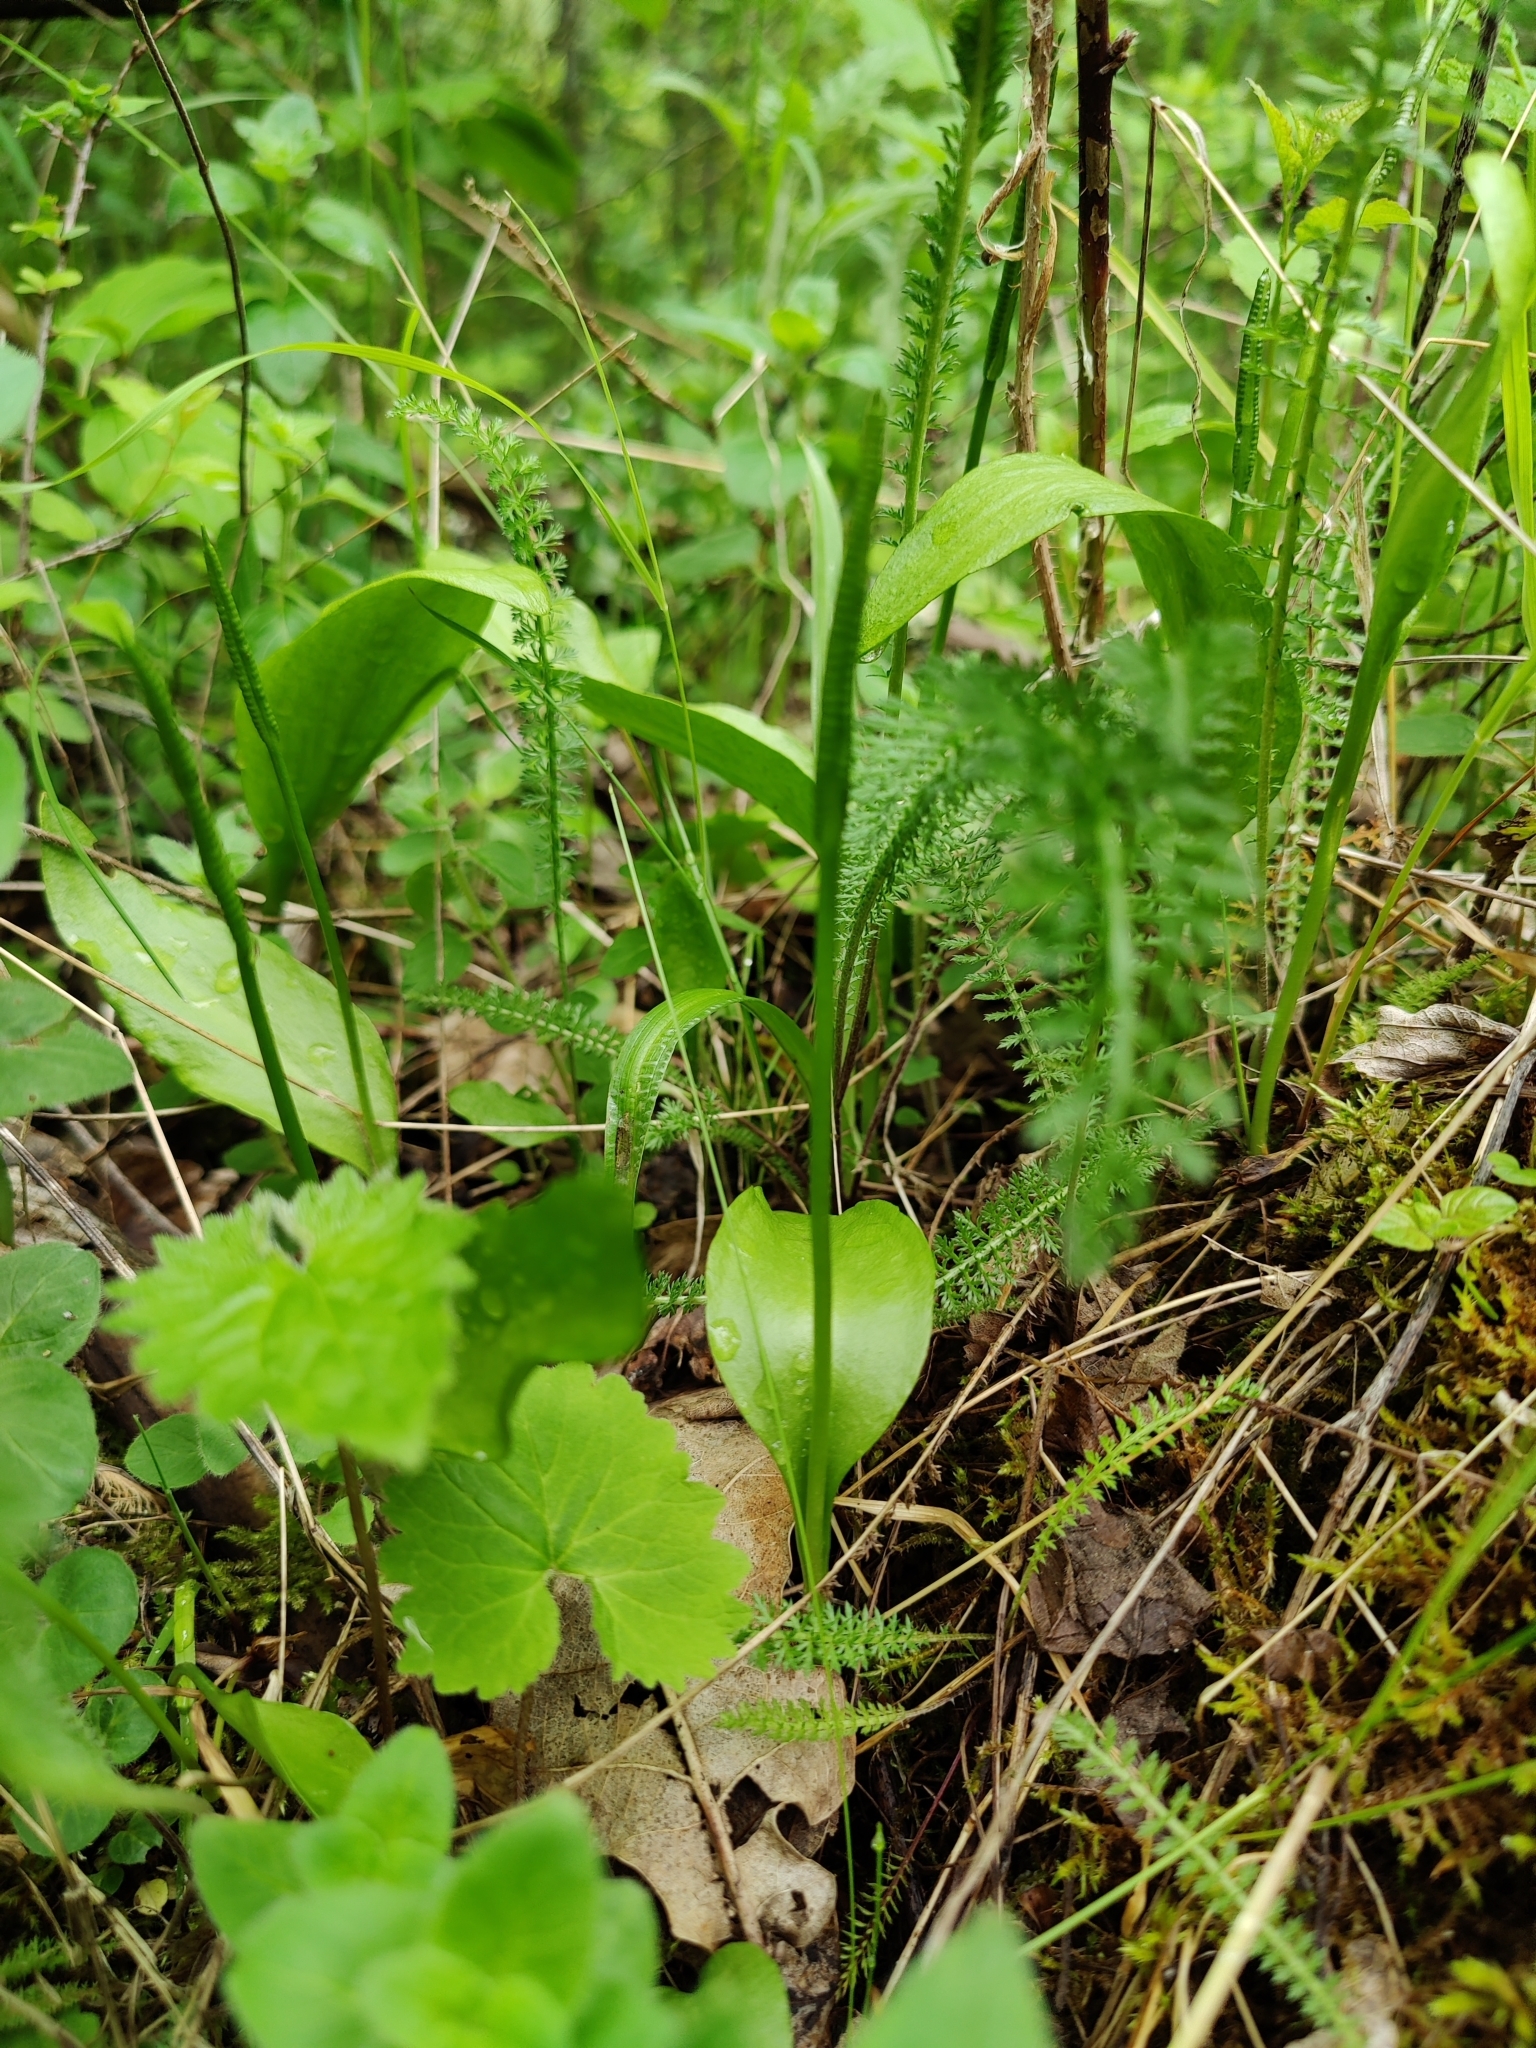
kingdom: Plantae
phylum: Tracheophyta
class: Polypodiopsida
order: Ophioglossales
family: Ophioglossaceae
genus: Ophioglossum
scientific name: Ophioglossum vulgatum
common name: Adder's-tongue
